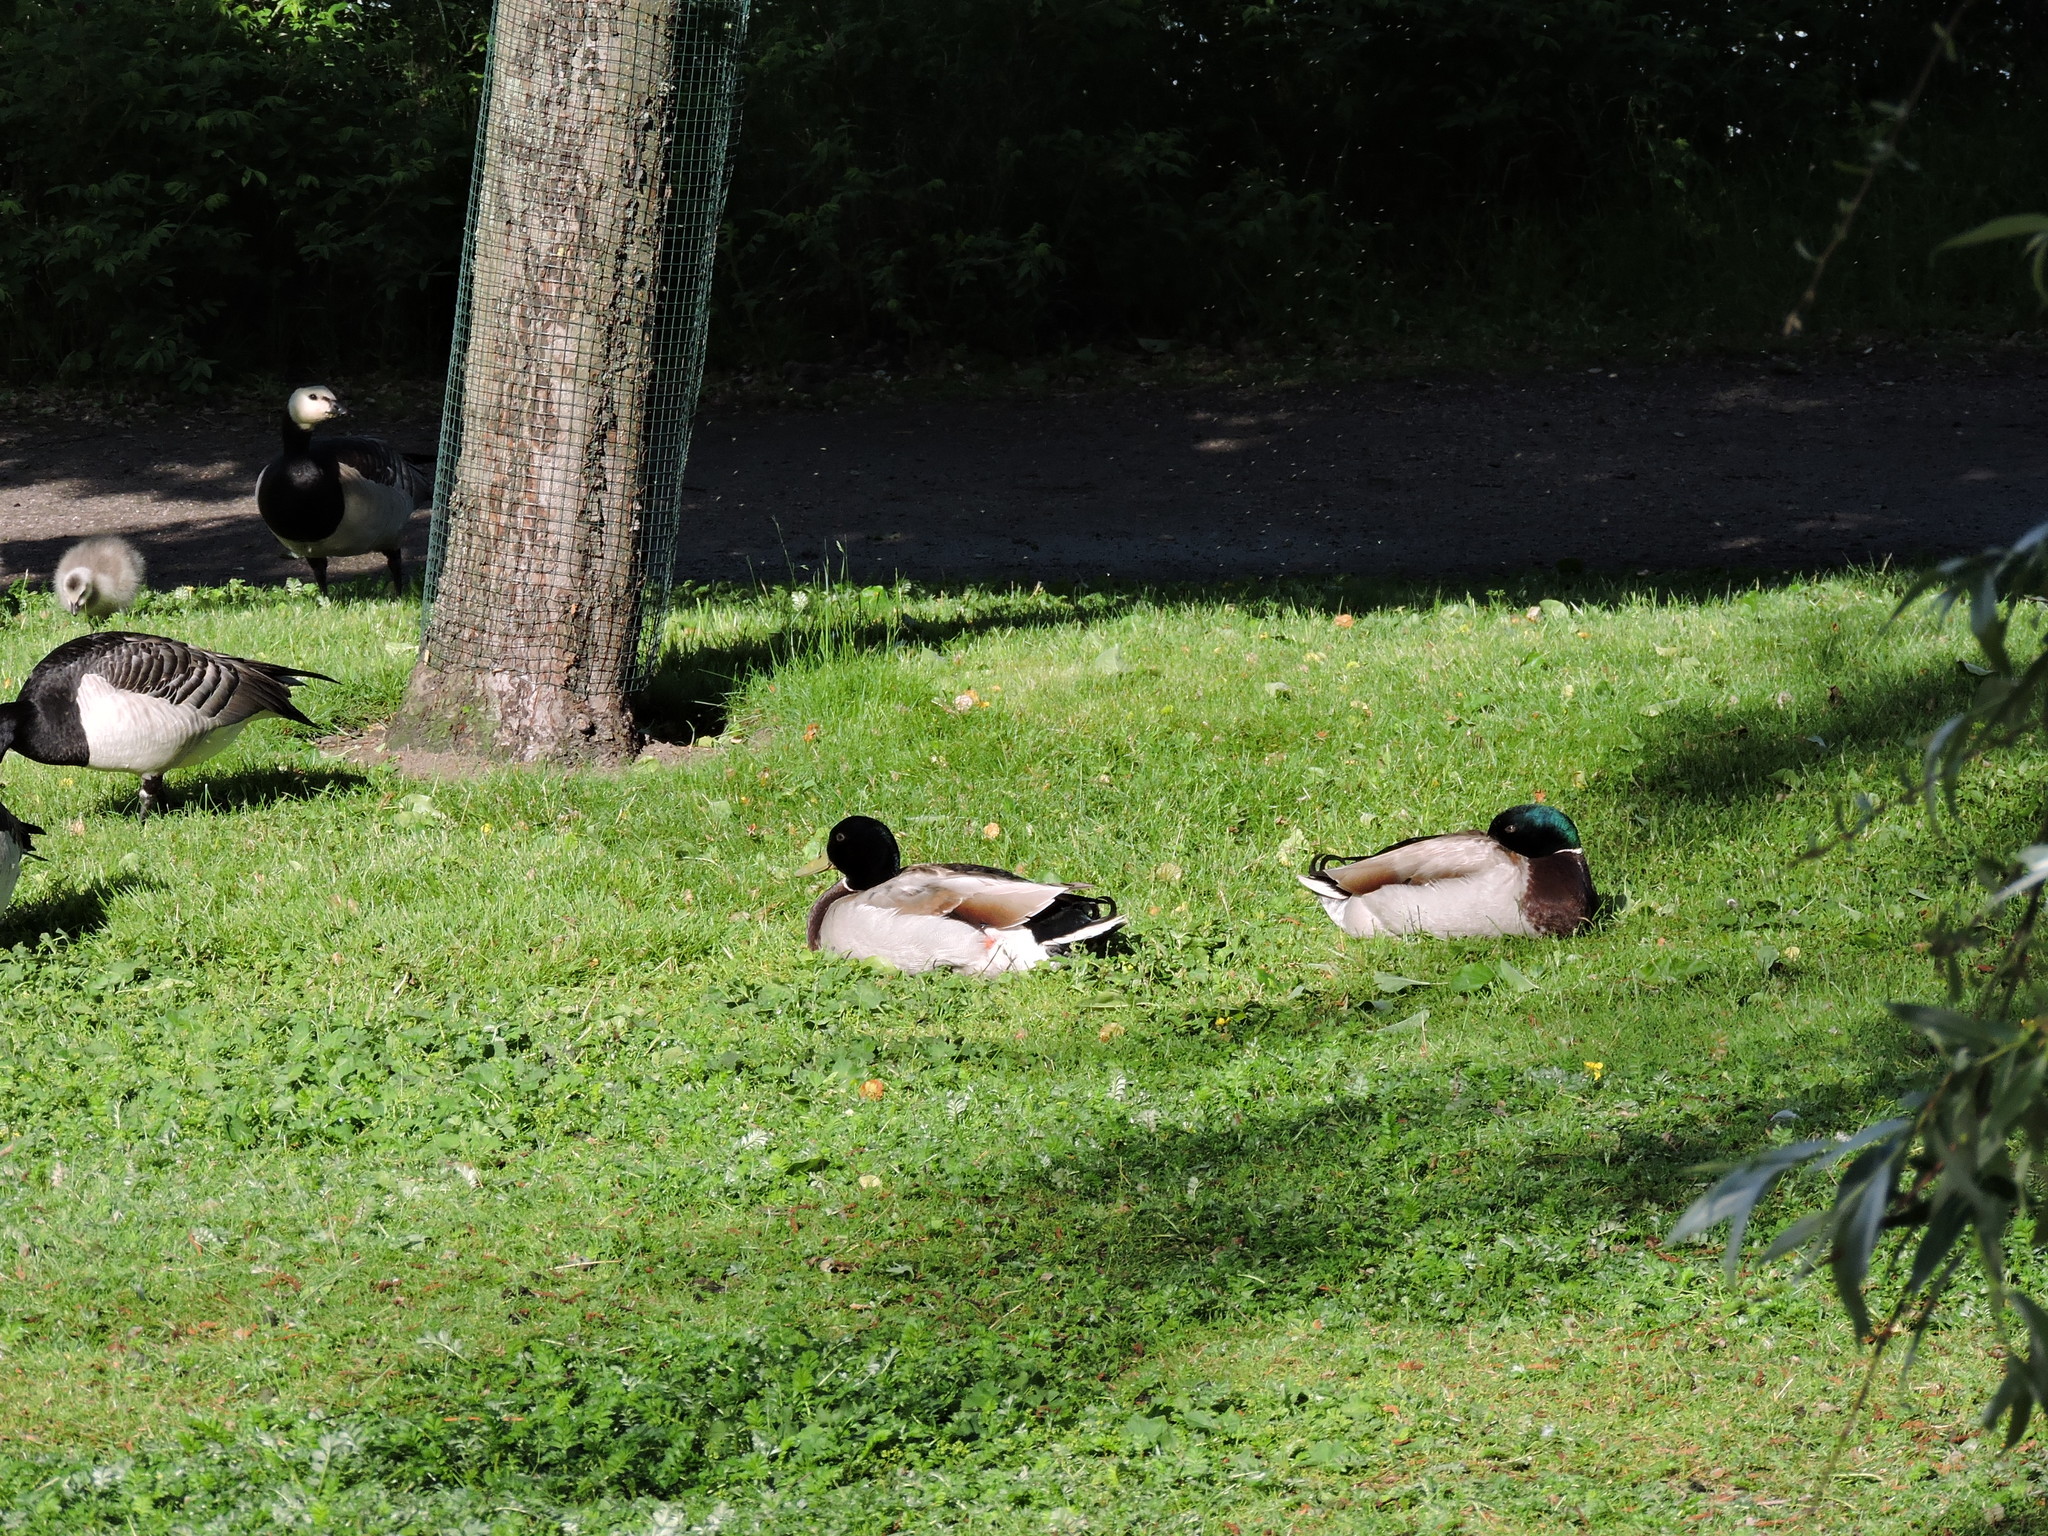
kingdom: Animalia
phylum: Chordata
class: Aves
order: Anseriformes
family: Anatidae
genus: Anas
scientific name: Anas platyrhynchos
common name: Mallard
